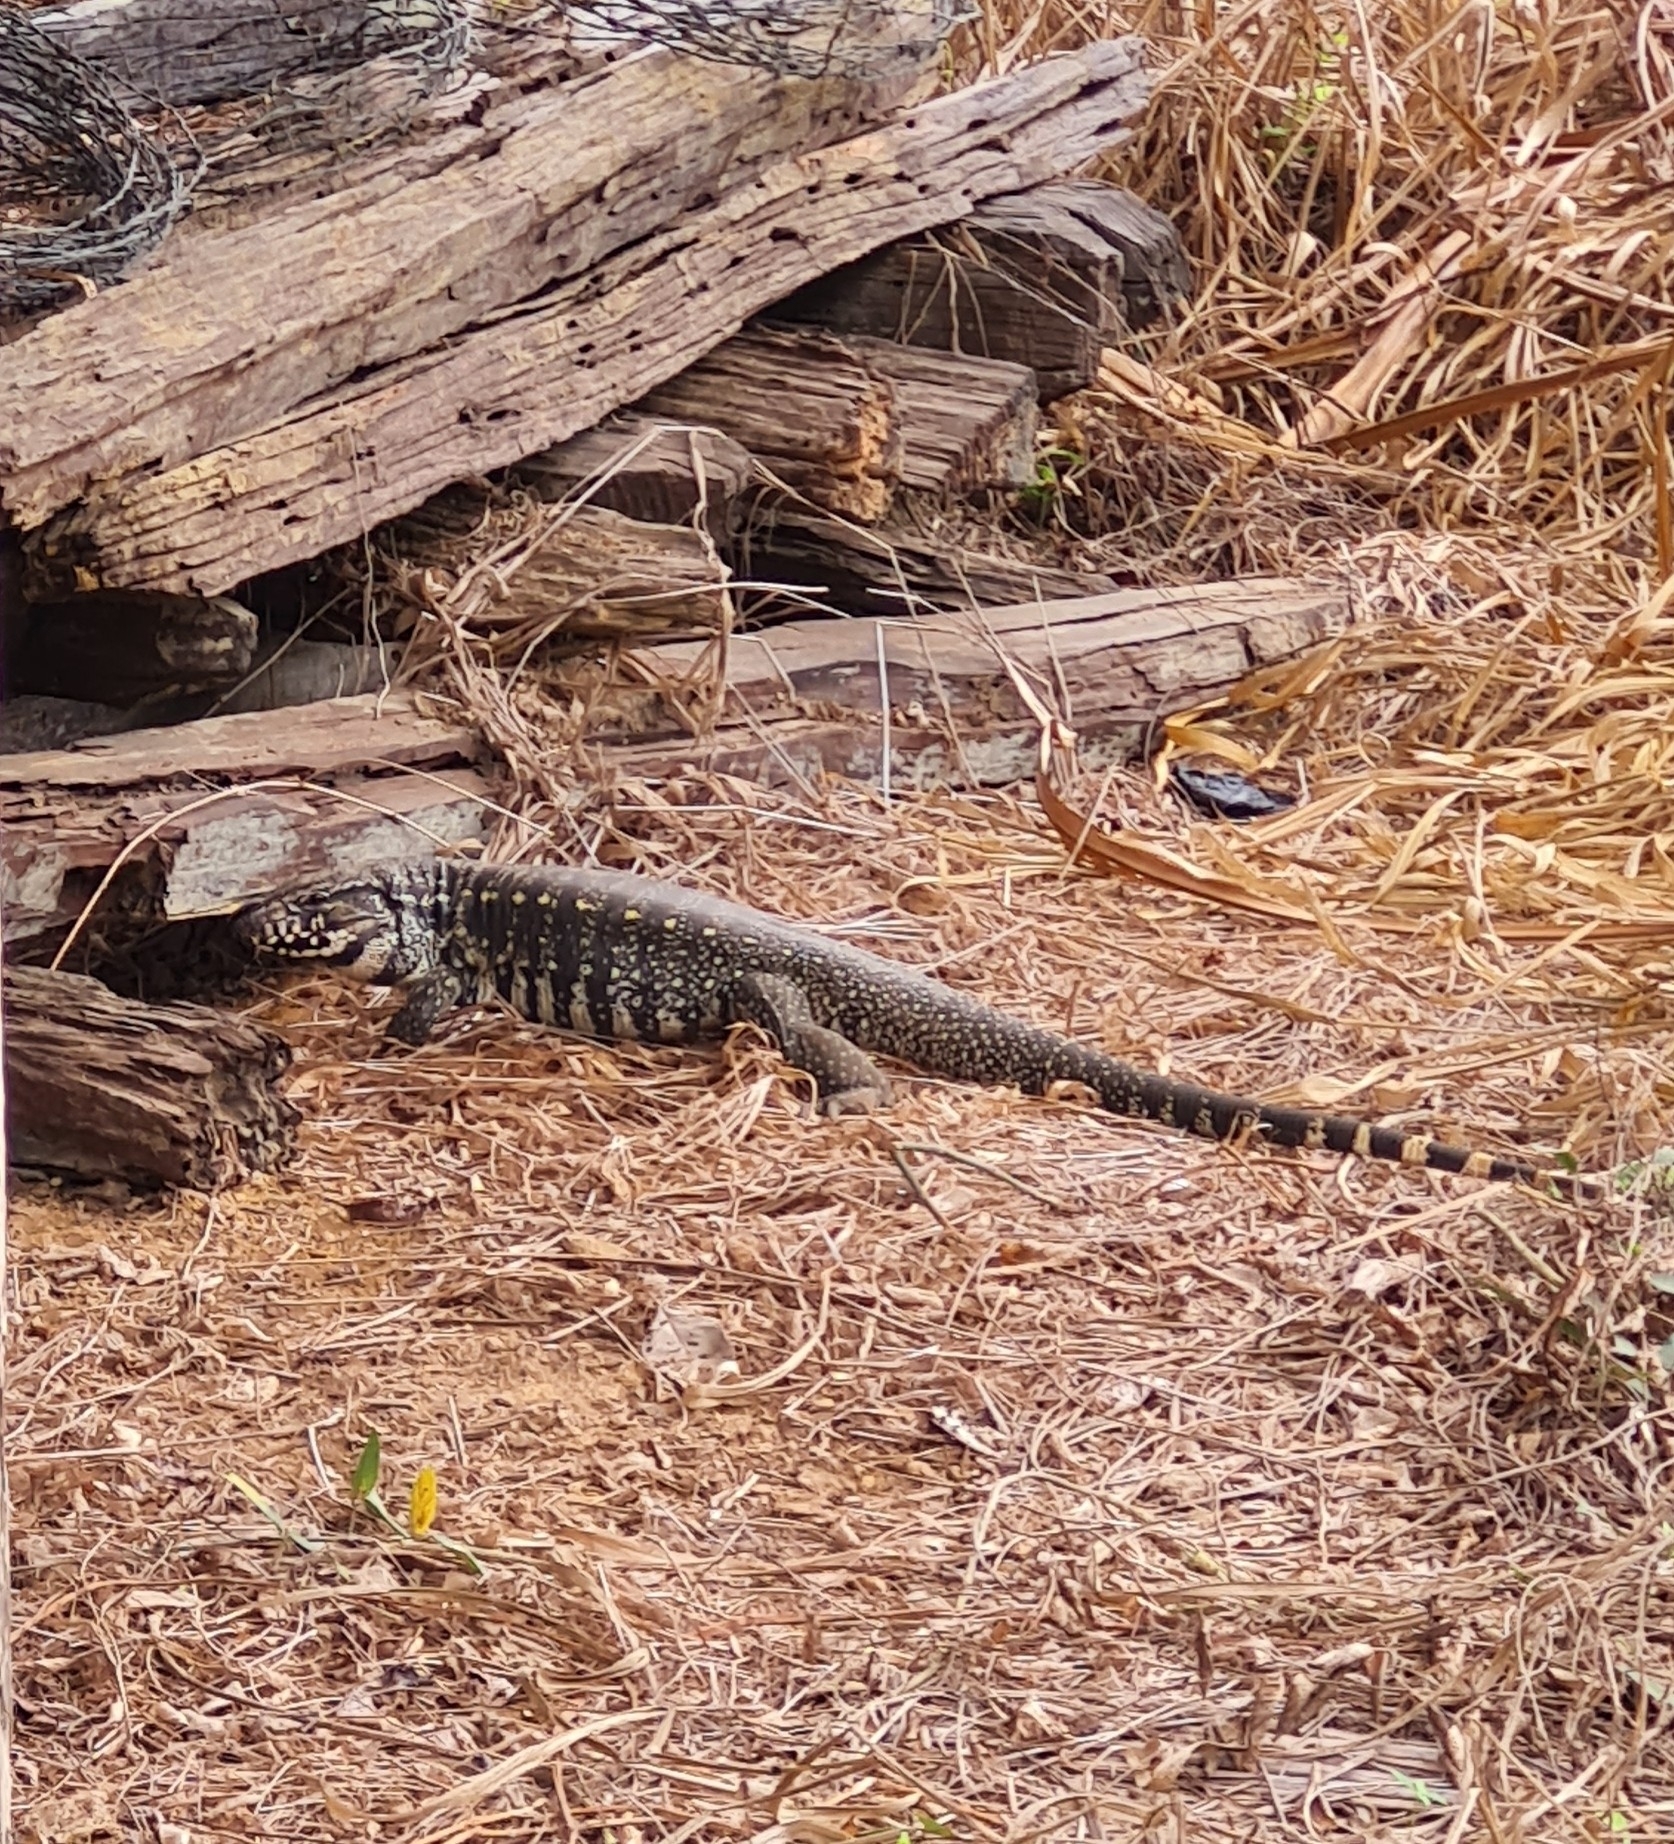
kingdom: Animalia
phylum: Chordata
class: Squamata
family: Teiidae
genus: Salvator
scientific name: Salvator merianae
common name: Argentine black and white tegu
